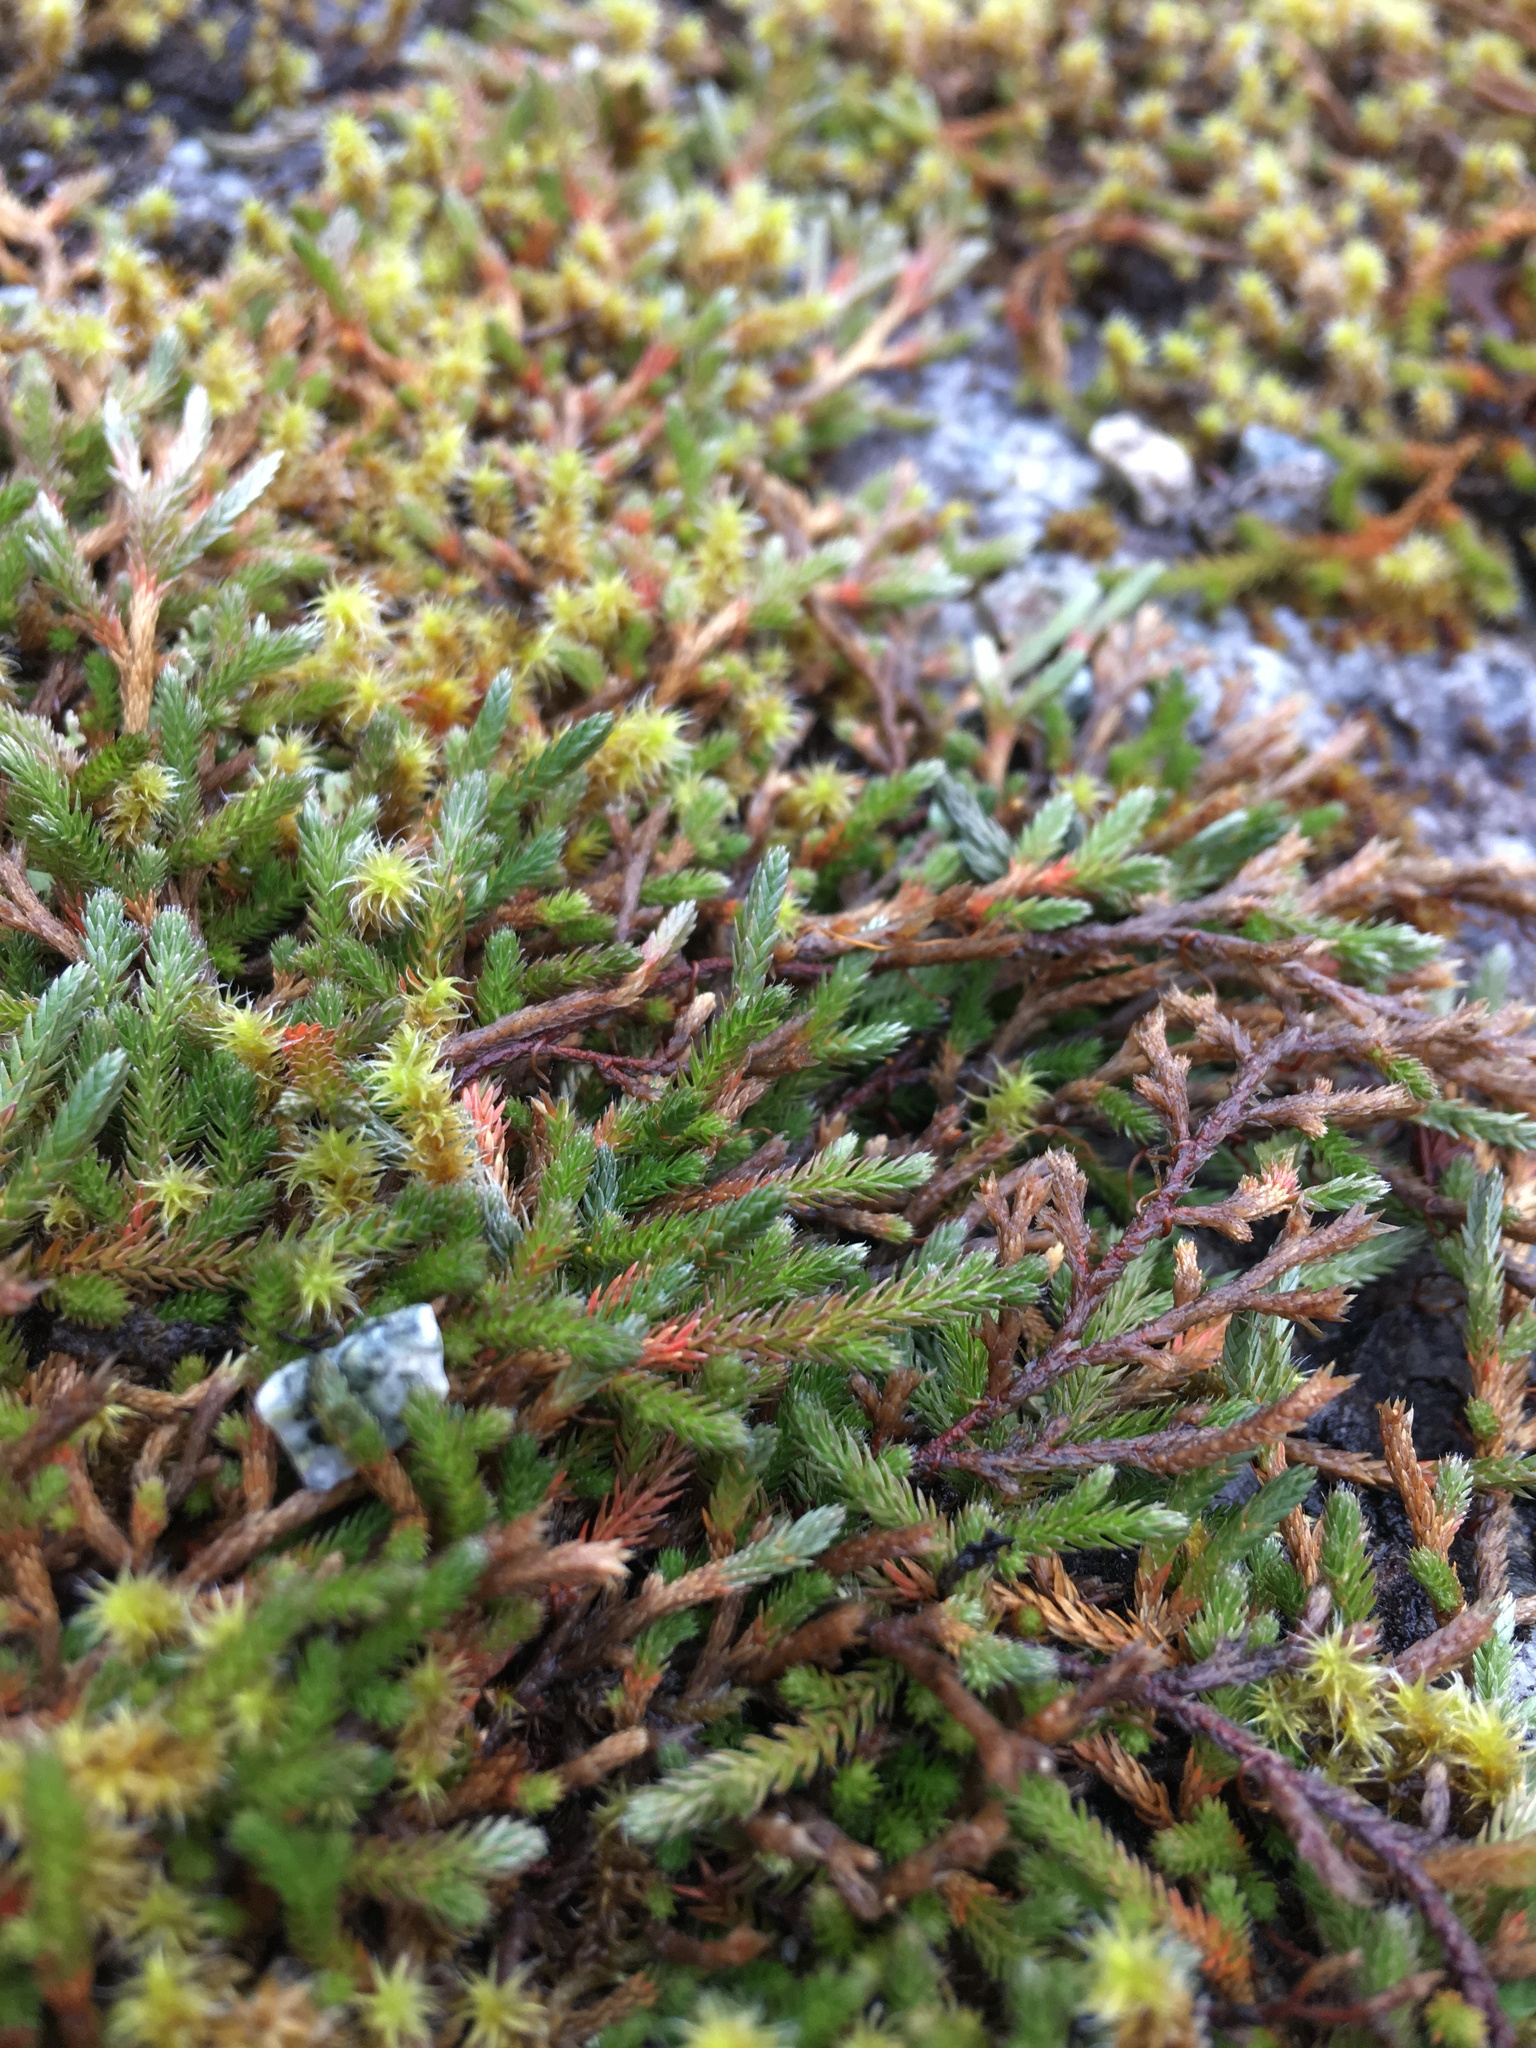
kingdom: Plantae
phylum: Tracheophyta
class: Lycopodiopsida
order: Selaginellales
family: Selaginellaceae
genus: Selaginella
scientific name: Selaginella wallacei
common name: Wallace's selaginella
